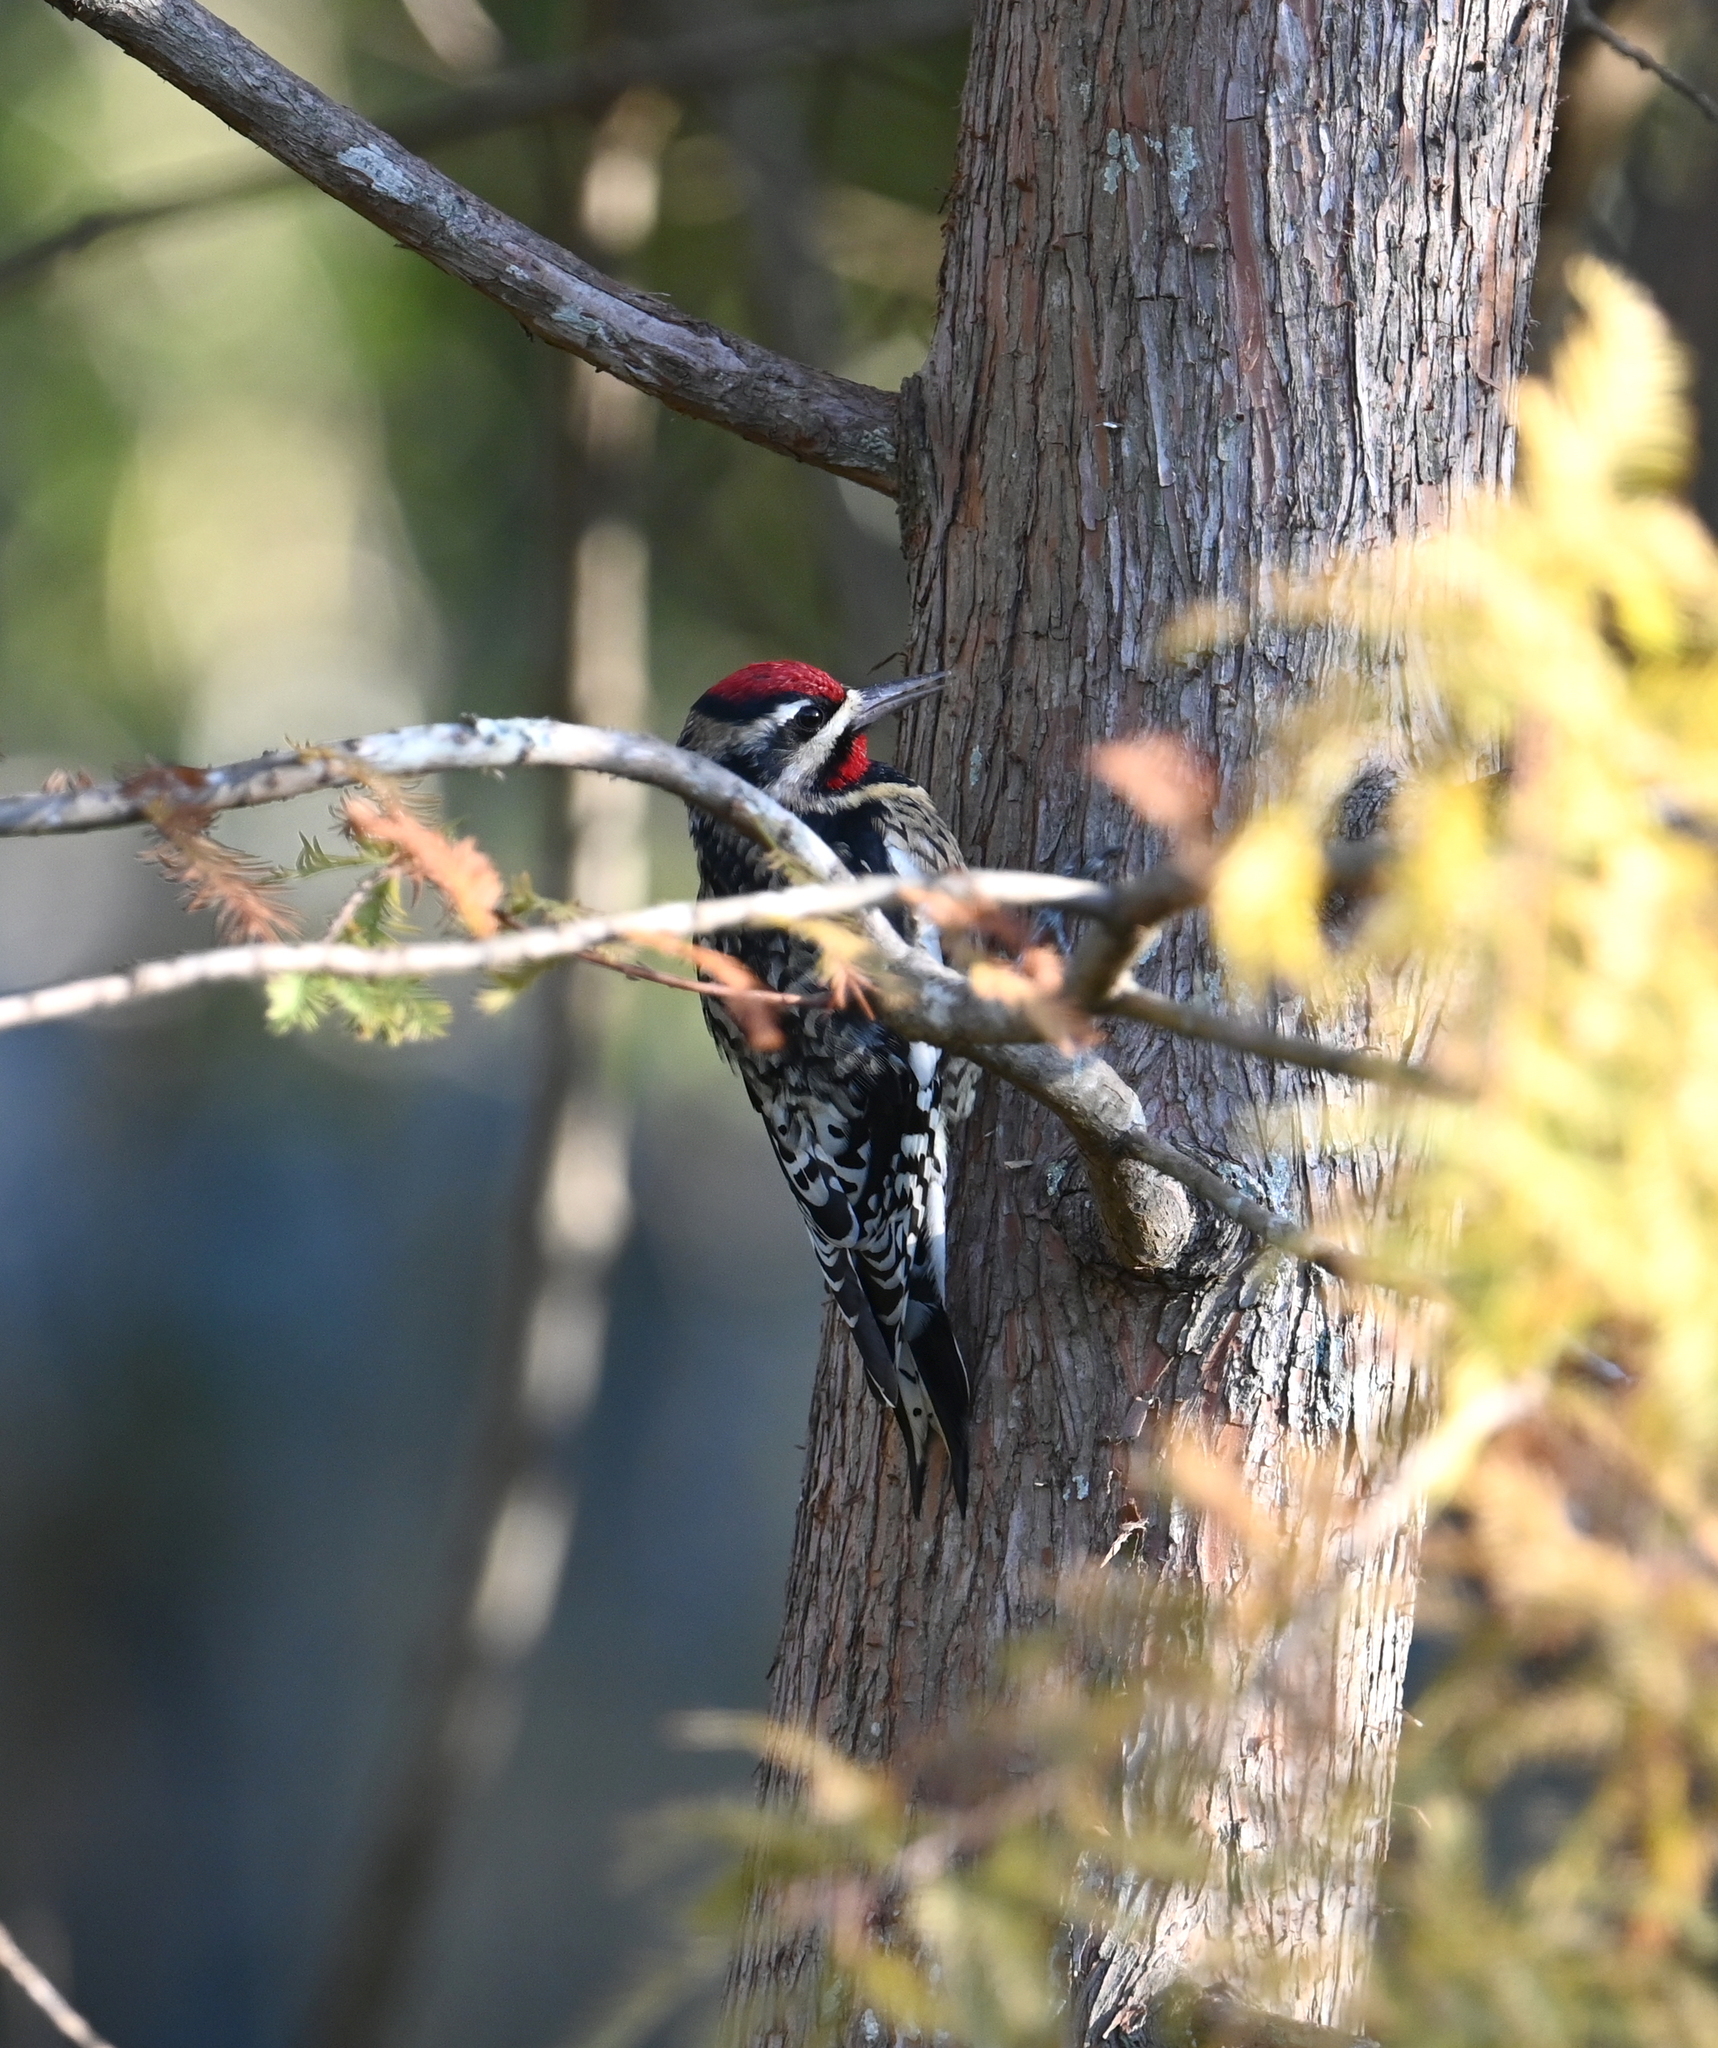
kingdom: Animalia
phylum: Chordata
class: Aves
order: Piciformes
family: Picidae
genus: Sphyrapicus
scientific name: Sphyrapicus varius
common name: Yellow-bellied sapsucker
